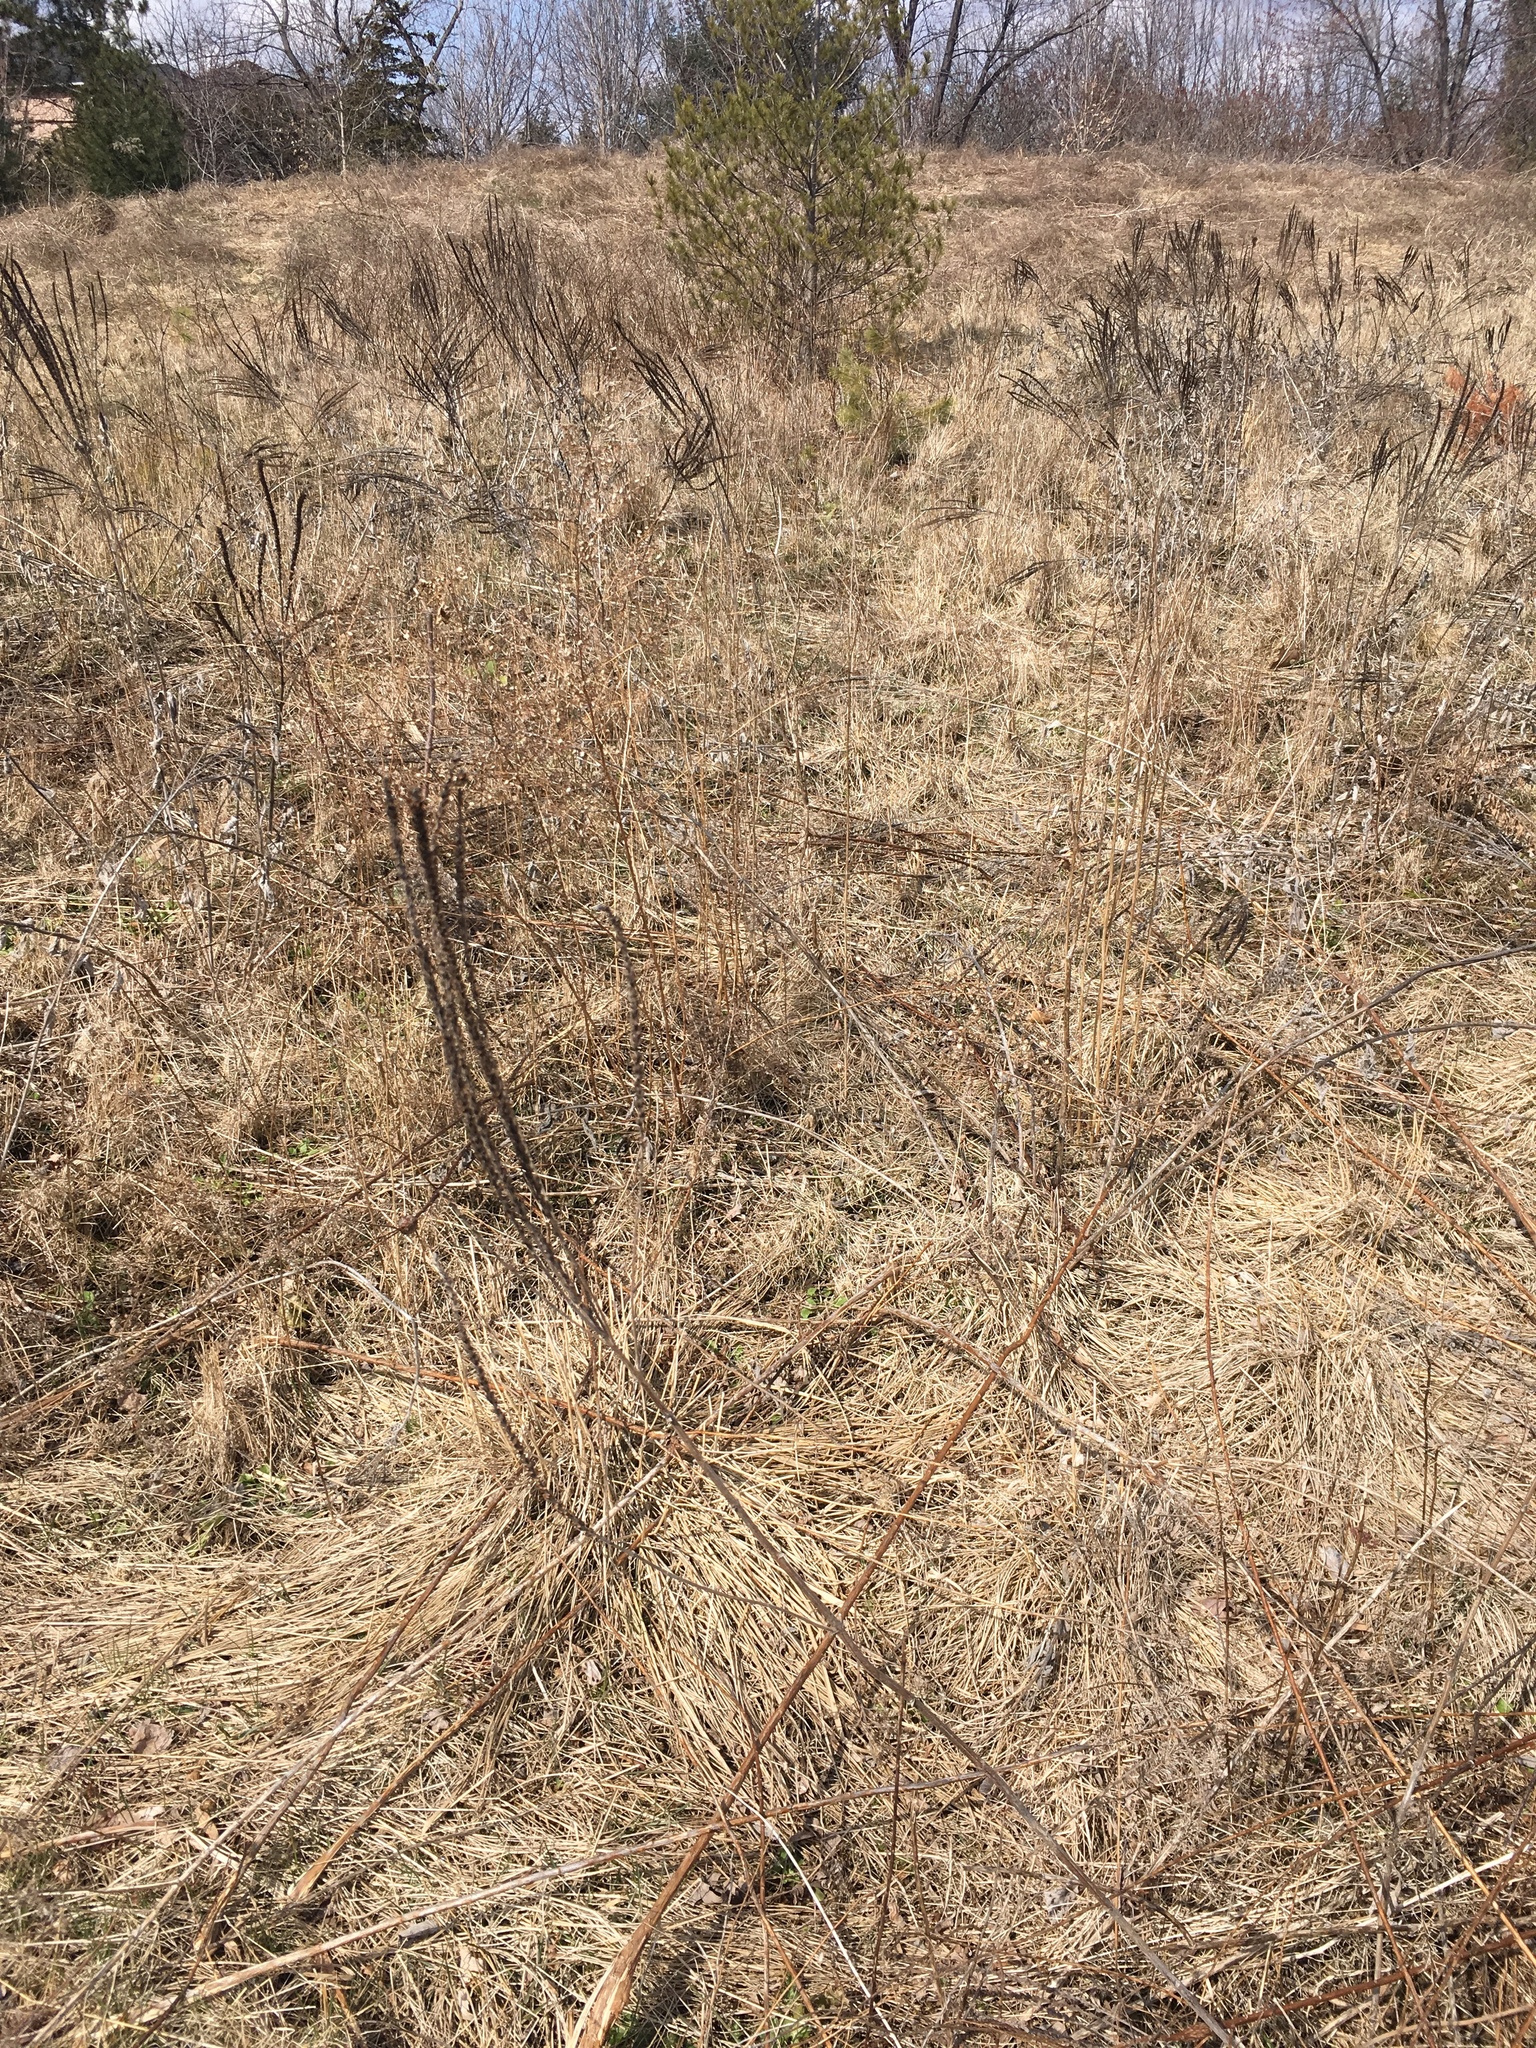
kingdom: Plantae
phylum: Tracheophyta
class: Magnoliopsida
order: Lamiales
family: Verbenaceae
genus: Verbena
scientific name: Verbena hastata
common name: American blue vervain
